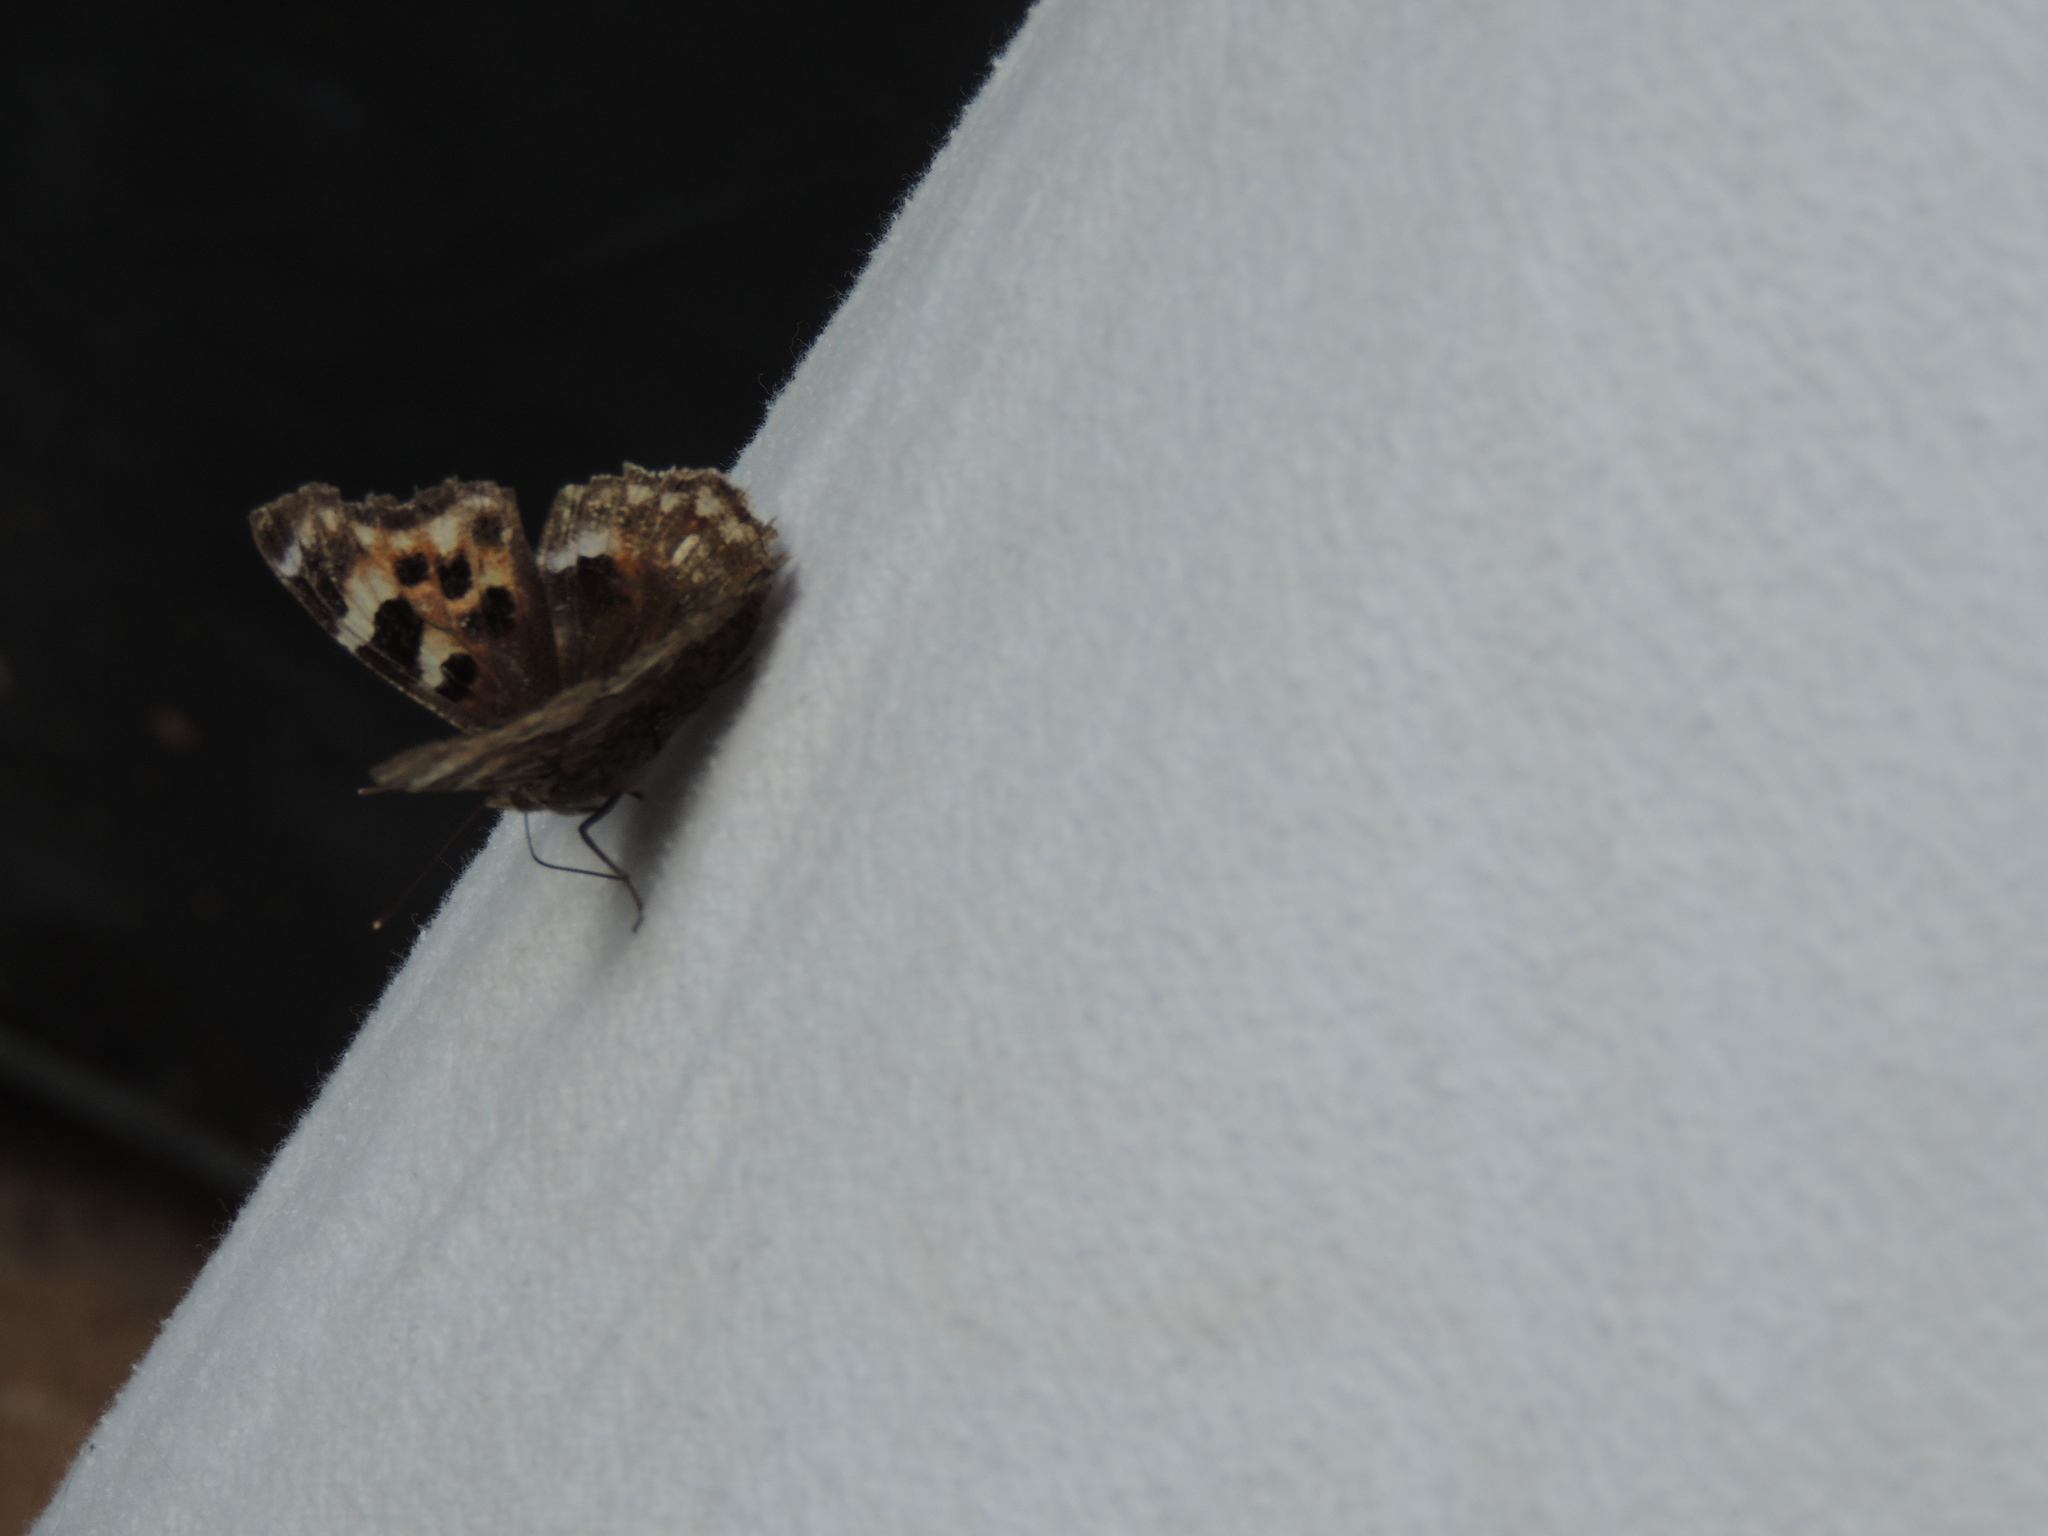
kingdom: Animalia
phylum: Arthropoda
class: Insecta
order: Lepidoptera
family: Nymphalidae
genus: Polygonia
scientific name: Polygonia vaualbum
